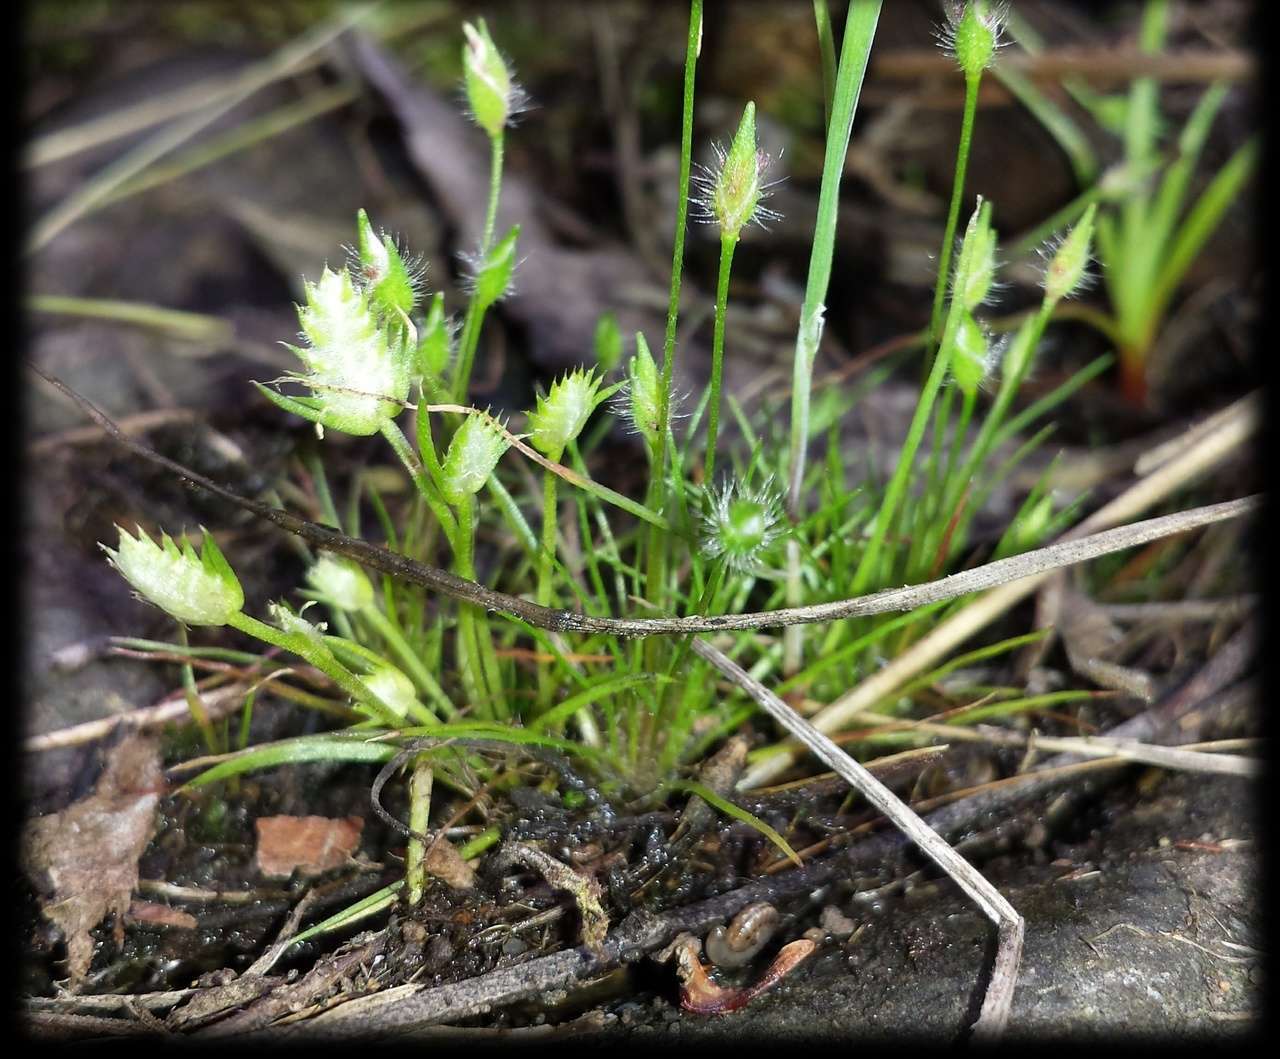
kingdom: Plantae
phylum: Tracheophyta
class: Liliopsida
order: Poales
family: Restionaceae
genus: Aphelia
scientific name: Aphelia pumilio
